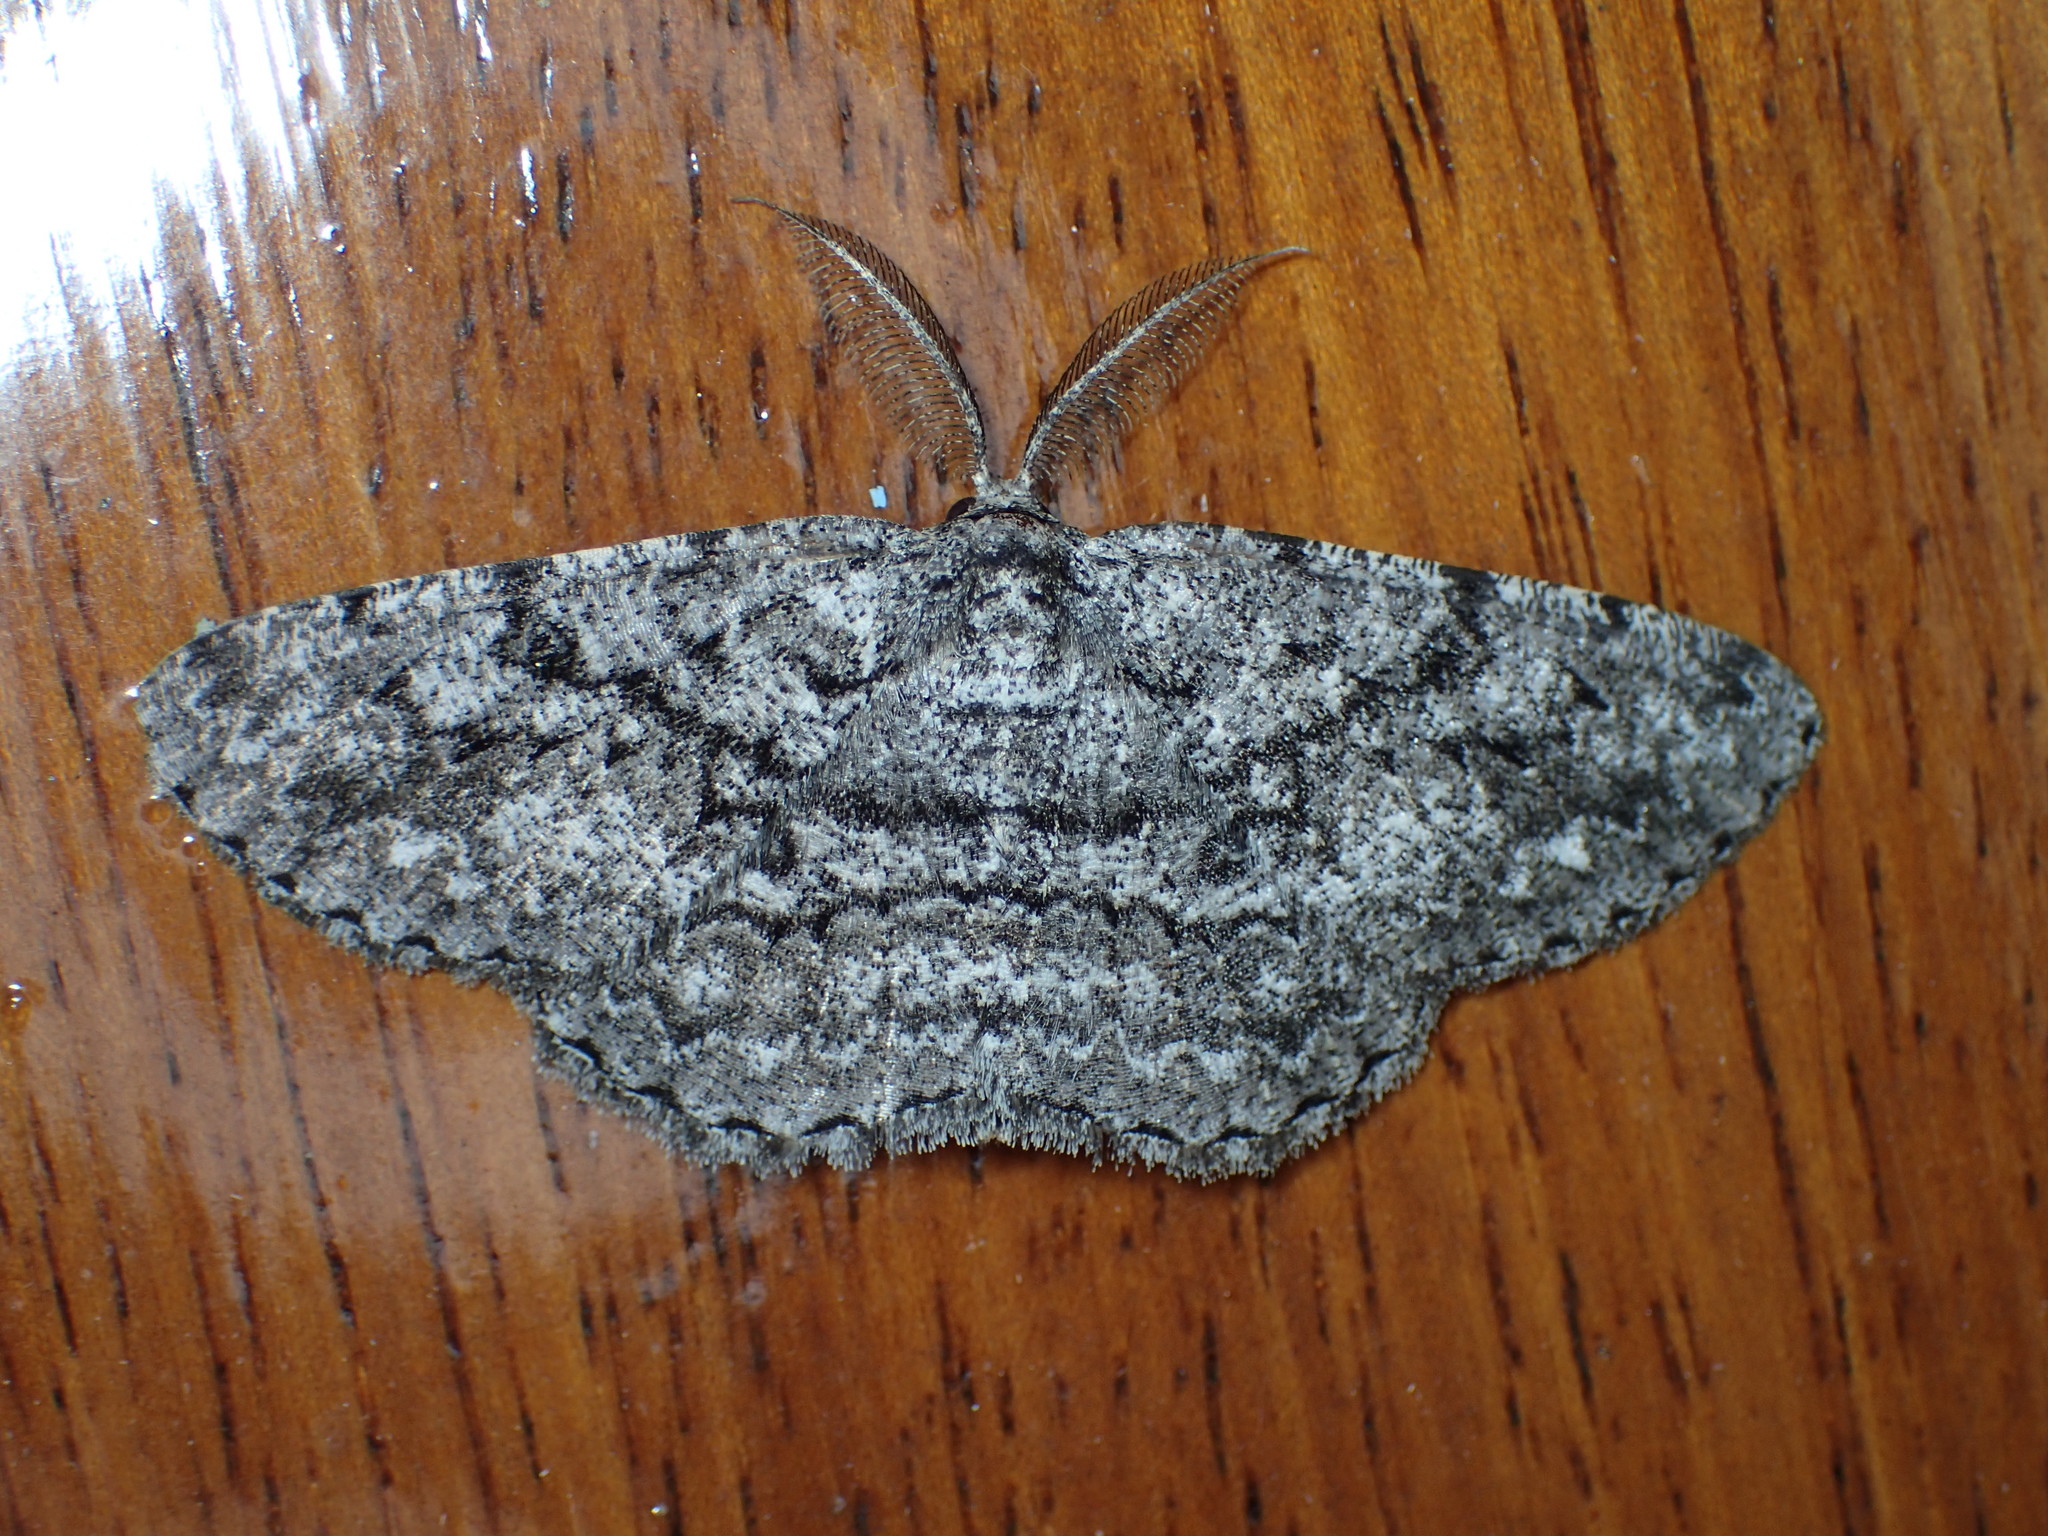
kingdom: Animalia
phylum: Arthropoda
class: Insecta
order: Lepidoptera
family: Geometridae
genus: Hypomecis
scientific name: Hypomecis umbrosaria
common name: Umber moth
